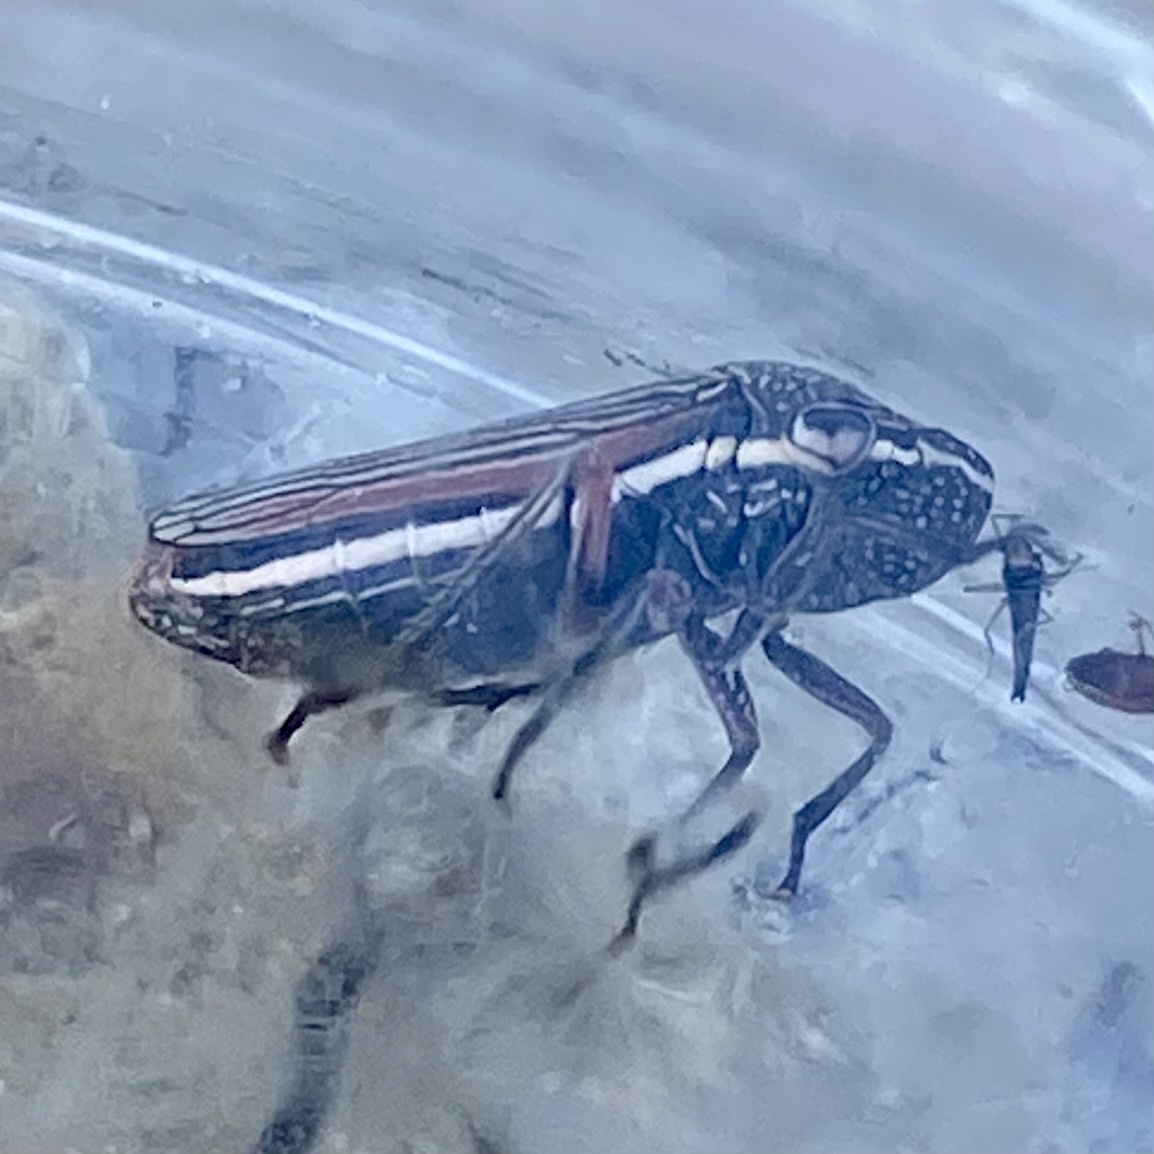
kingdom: Animalia
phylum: Arthropoda
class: Insecta
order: Hemiptera
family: Cicadellidae
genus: Cuerna
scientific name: Cuerna costalis
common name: Lateral-lined sharpshooter
